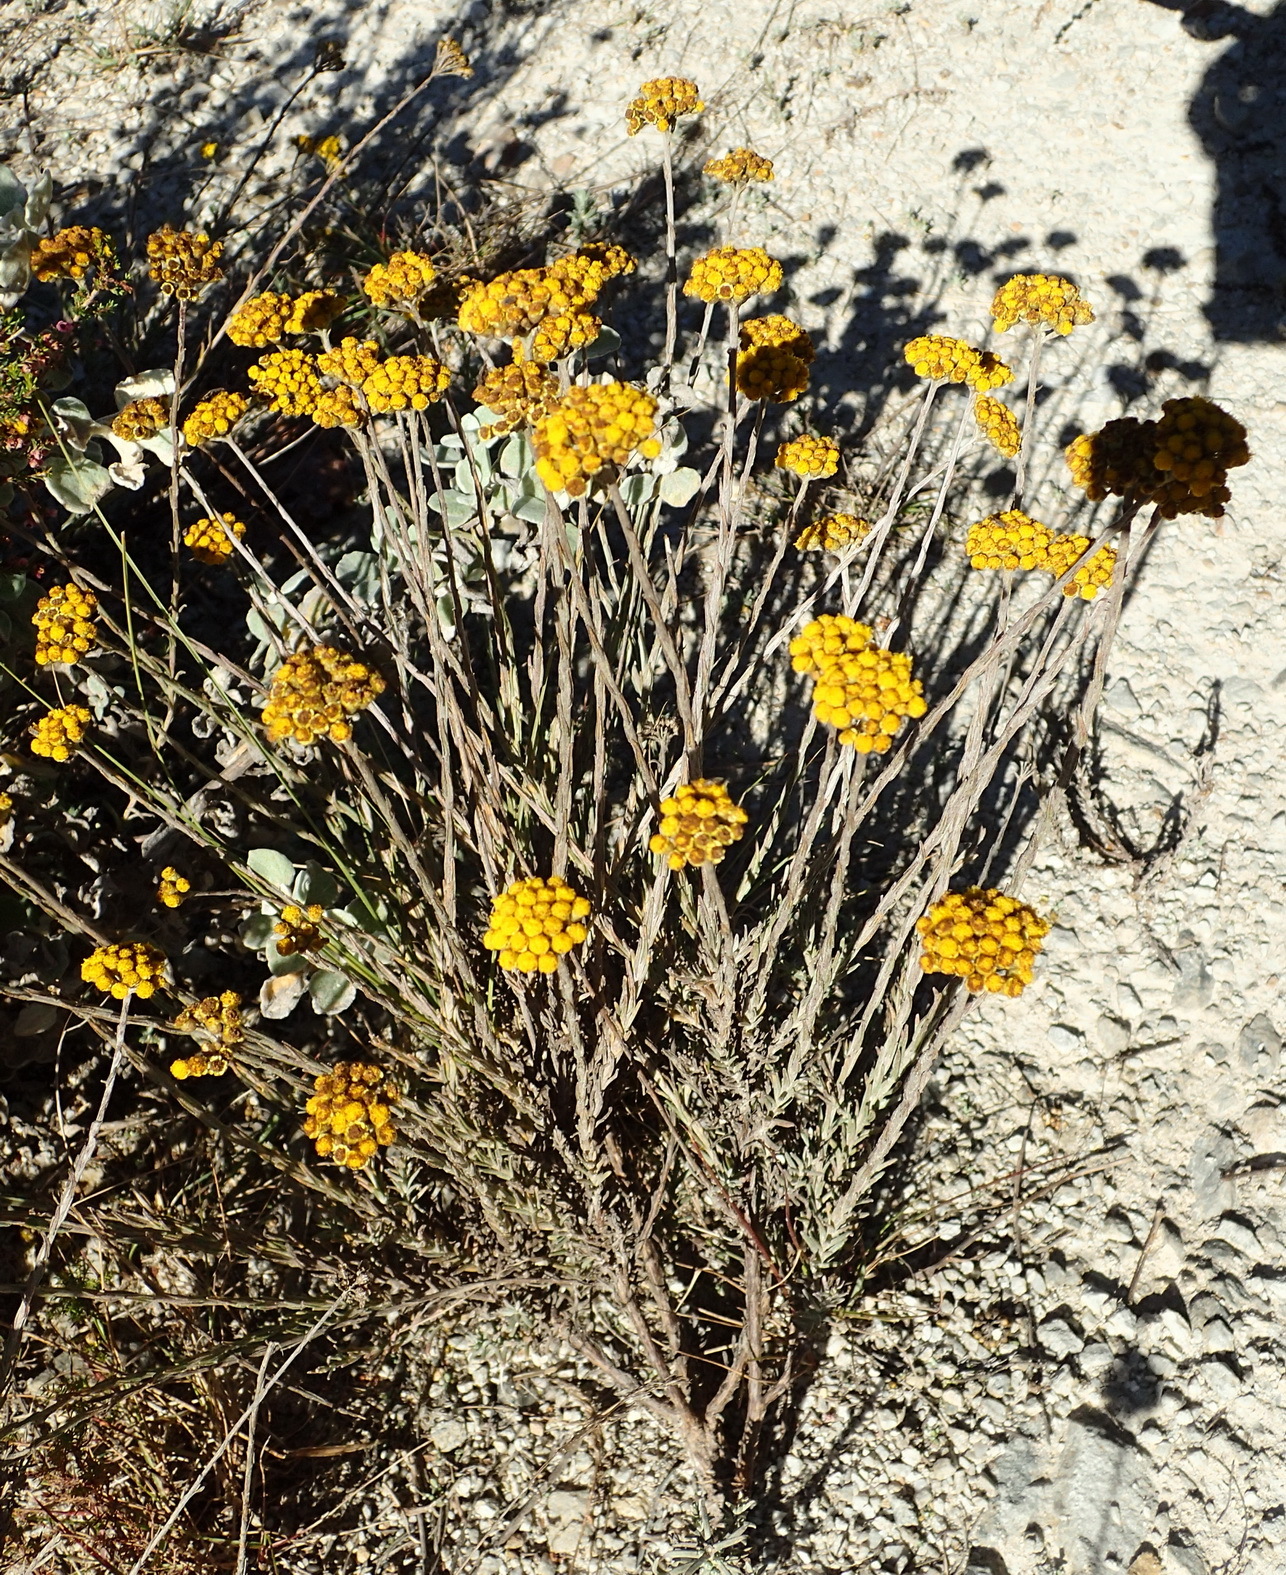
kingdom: Plantae
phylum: Tracheophyta
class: Magnoliopsida
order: Asterales
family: Asteraceae
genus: Helichrysum
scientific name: Helichrysum cymosum
